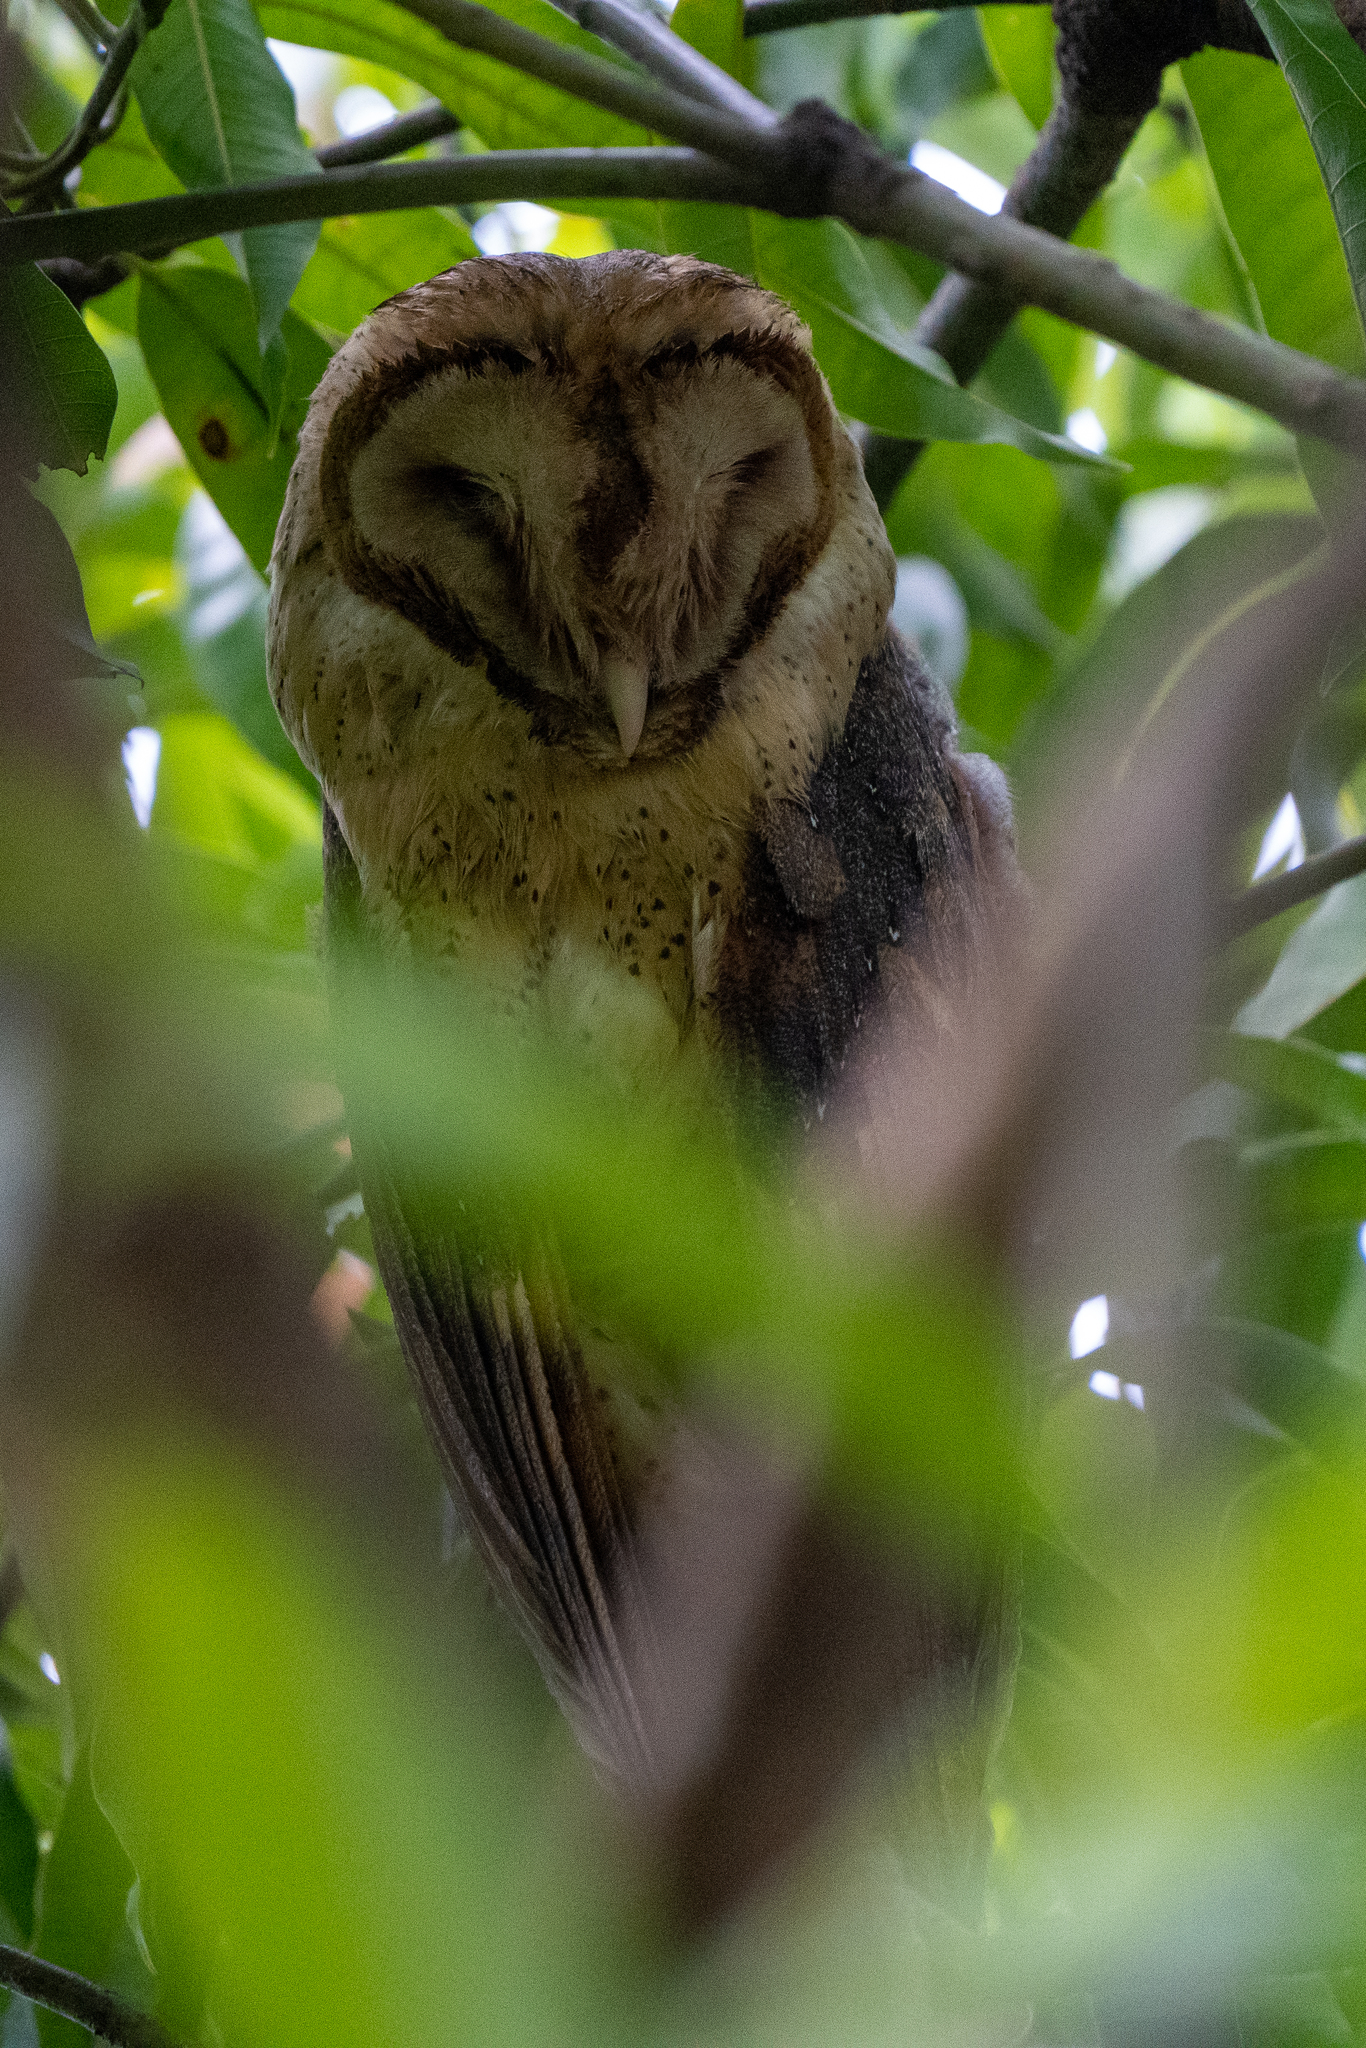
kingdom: Animalia
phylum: Chordata
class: Aves
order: Strigiformes
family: Tytonidae
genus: Tyto
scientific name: Tyto alba
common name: Barn owl
